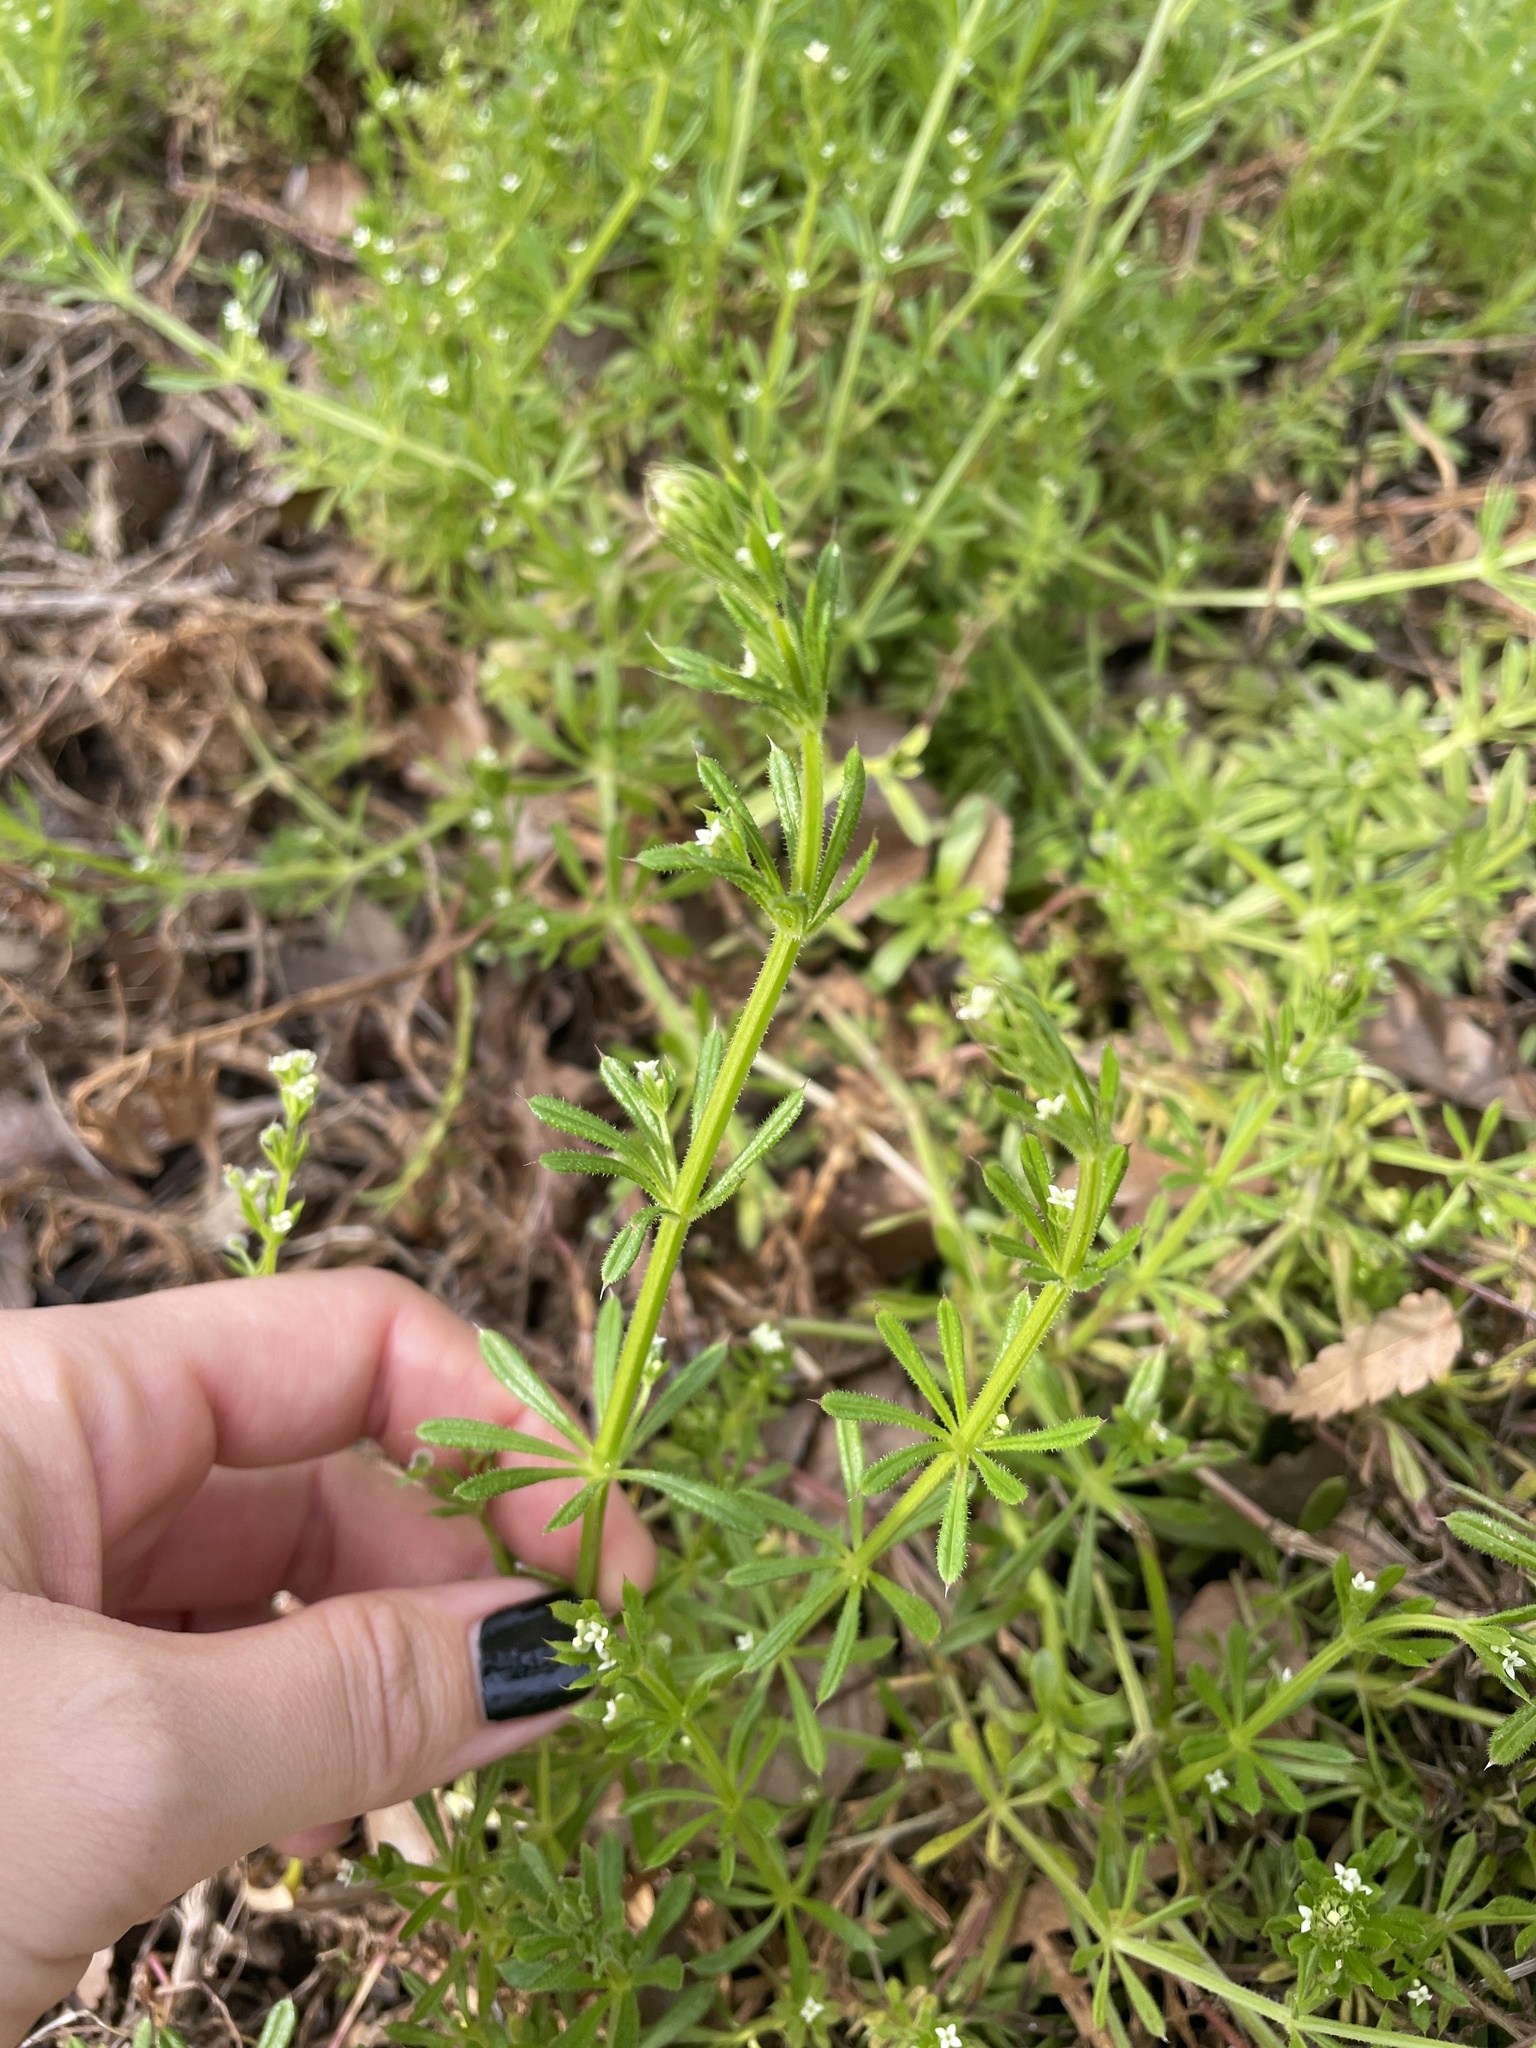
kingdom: Plantae
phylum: Tracheophyta
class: Magnoliopsida
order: Gentianales
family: Rubiaceae
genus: Galium
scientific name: Galium aparine
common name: Cleavers
